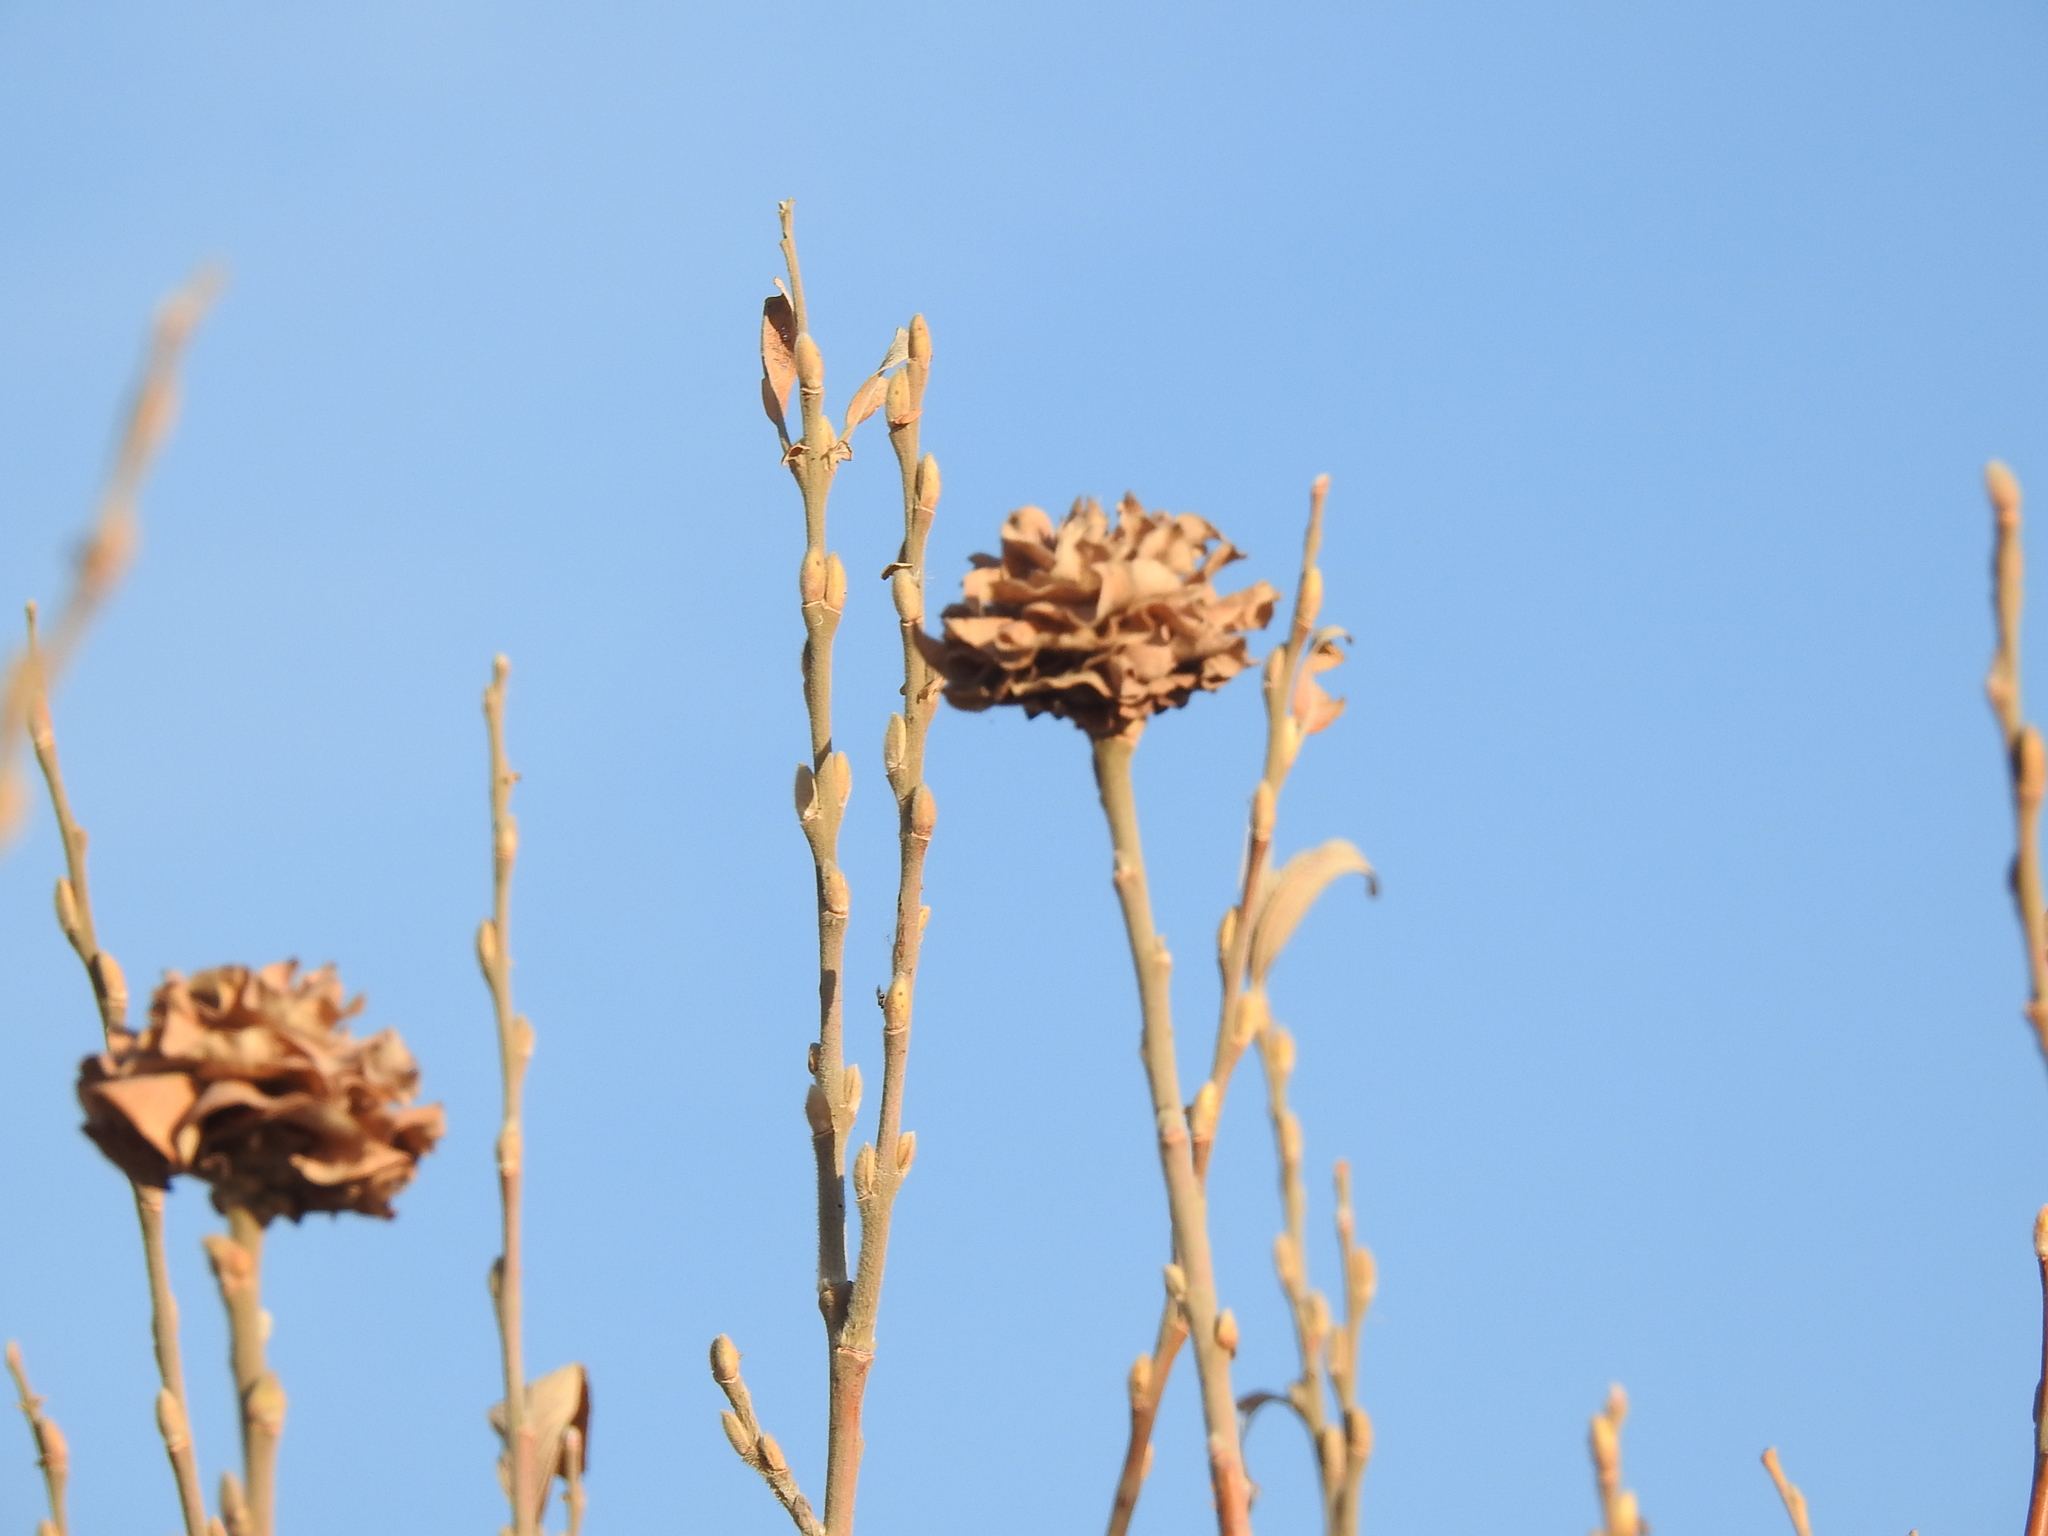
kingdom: Animalia
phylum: Arthropoda
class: Insecta
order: Diptera
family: Cecidomyiidae
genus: Rabdophaga
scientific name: Rabdophaga rosaria
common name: Willow rose gall midge
